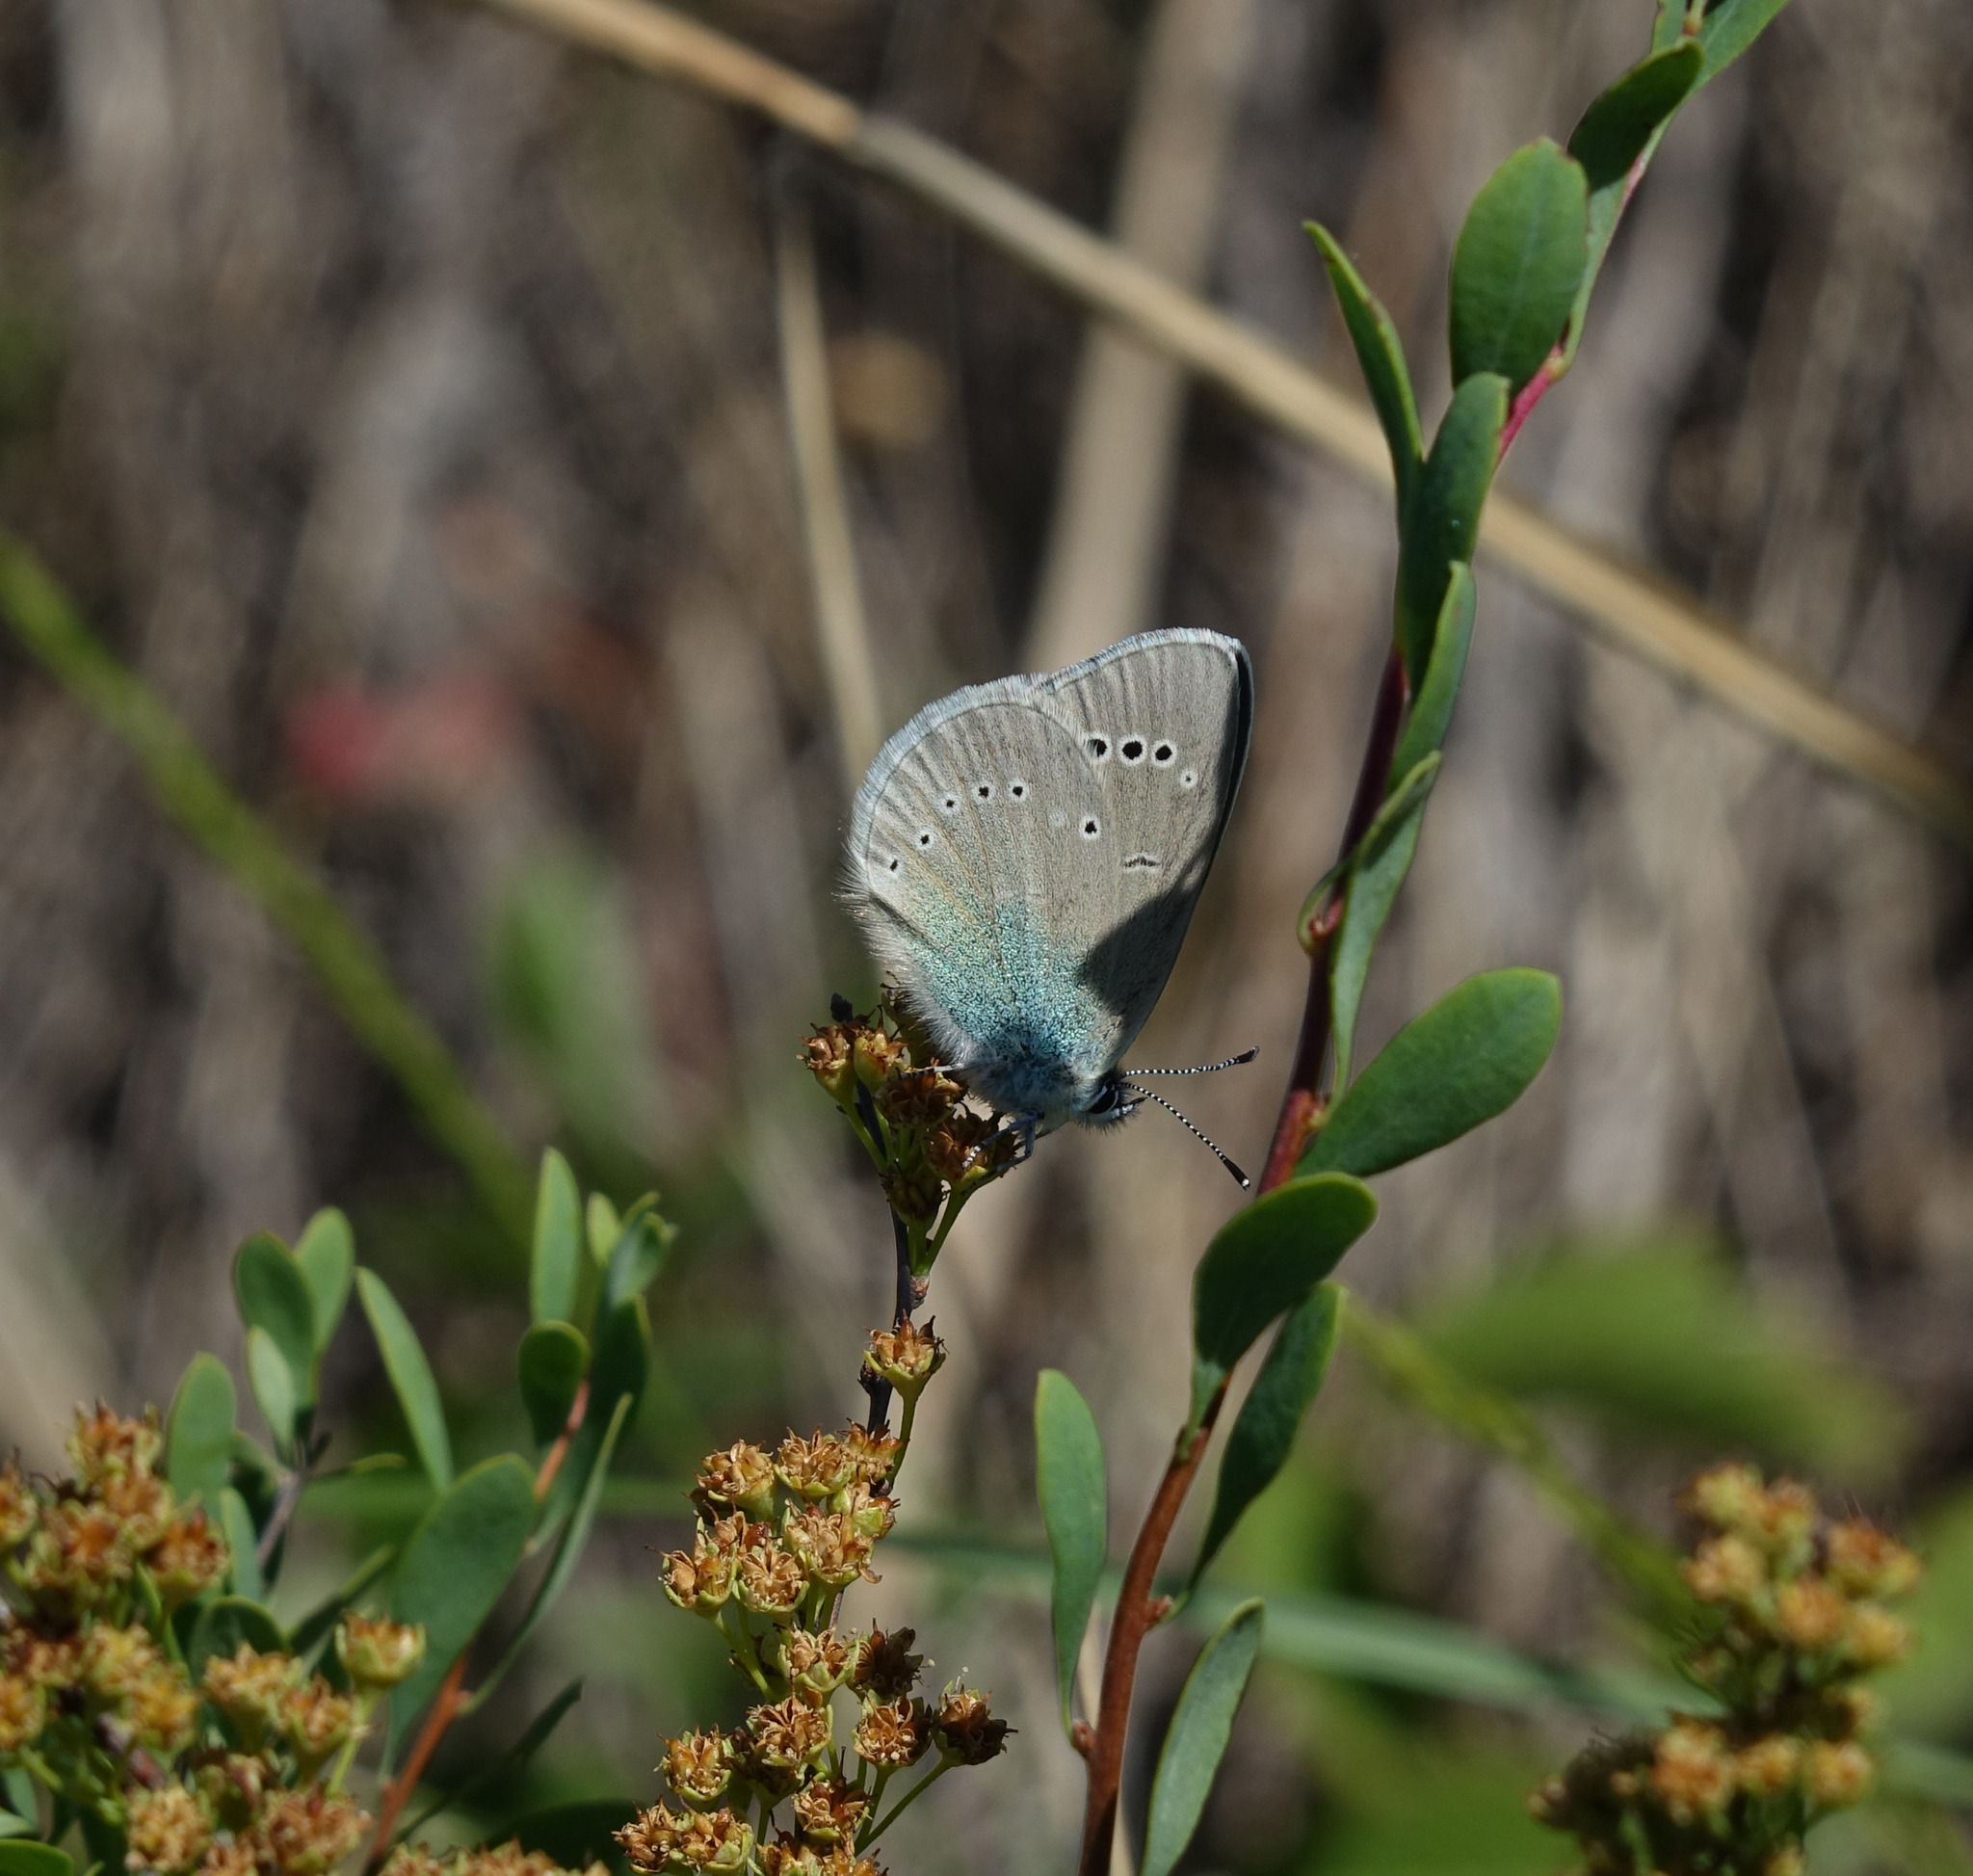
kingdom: Animalia
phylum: Arthropoda
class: Insecta
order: Lepidoptera
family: Lycaenidae
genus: Glaucopsyche
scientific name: Glaucopsyche lycormas
